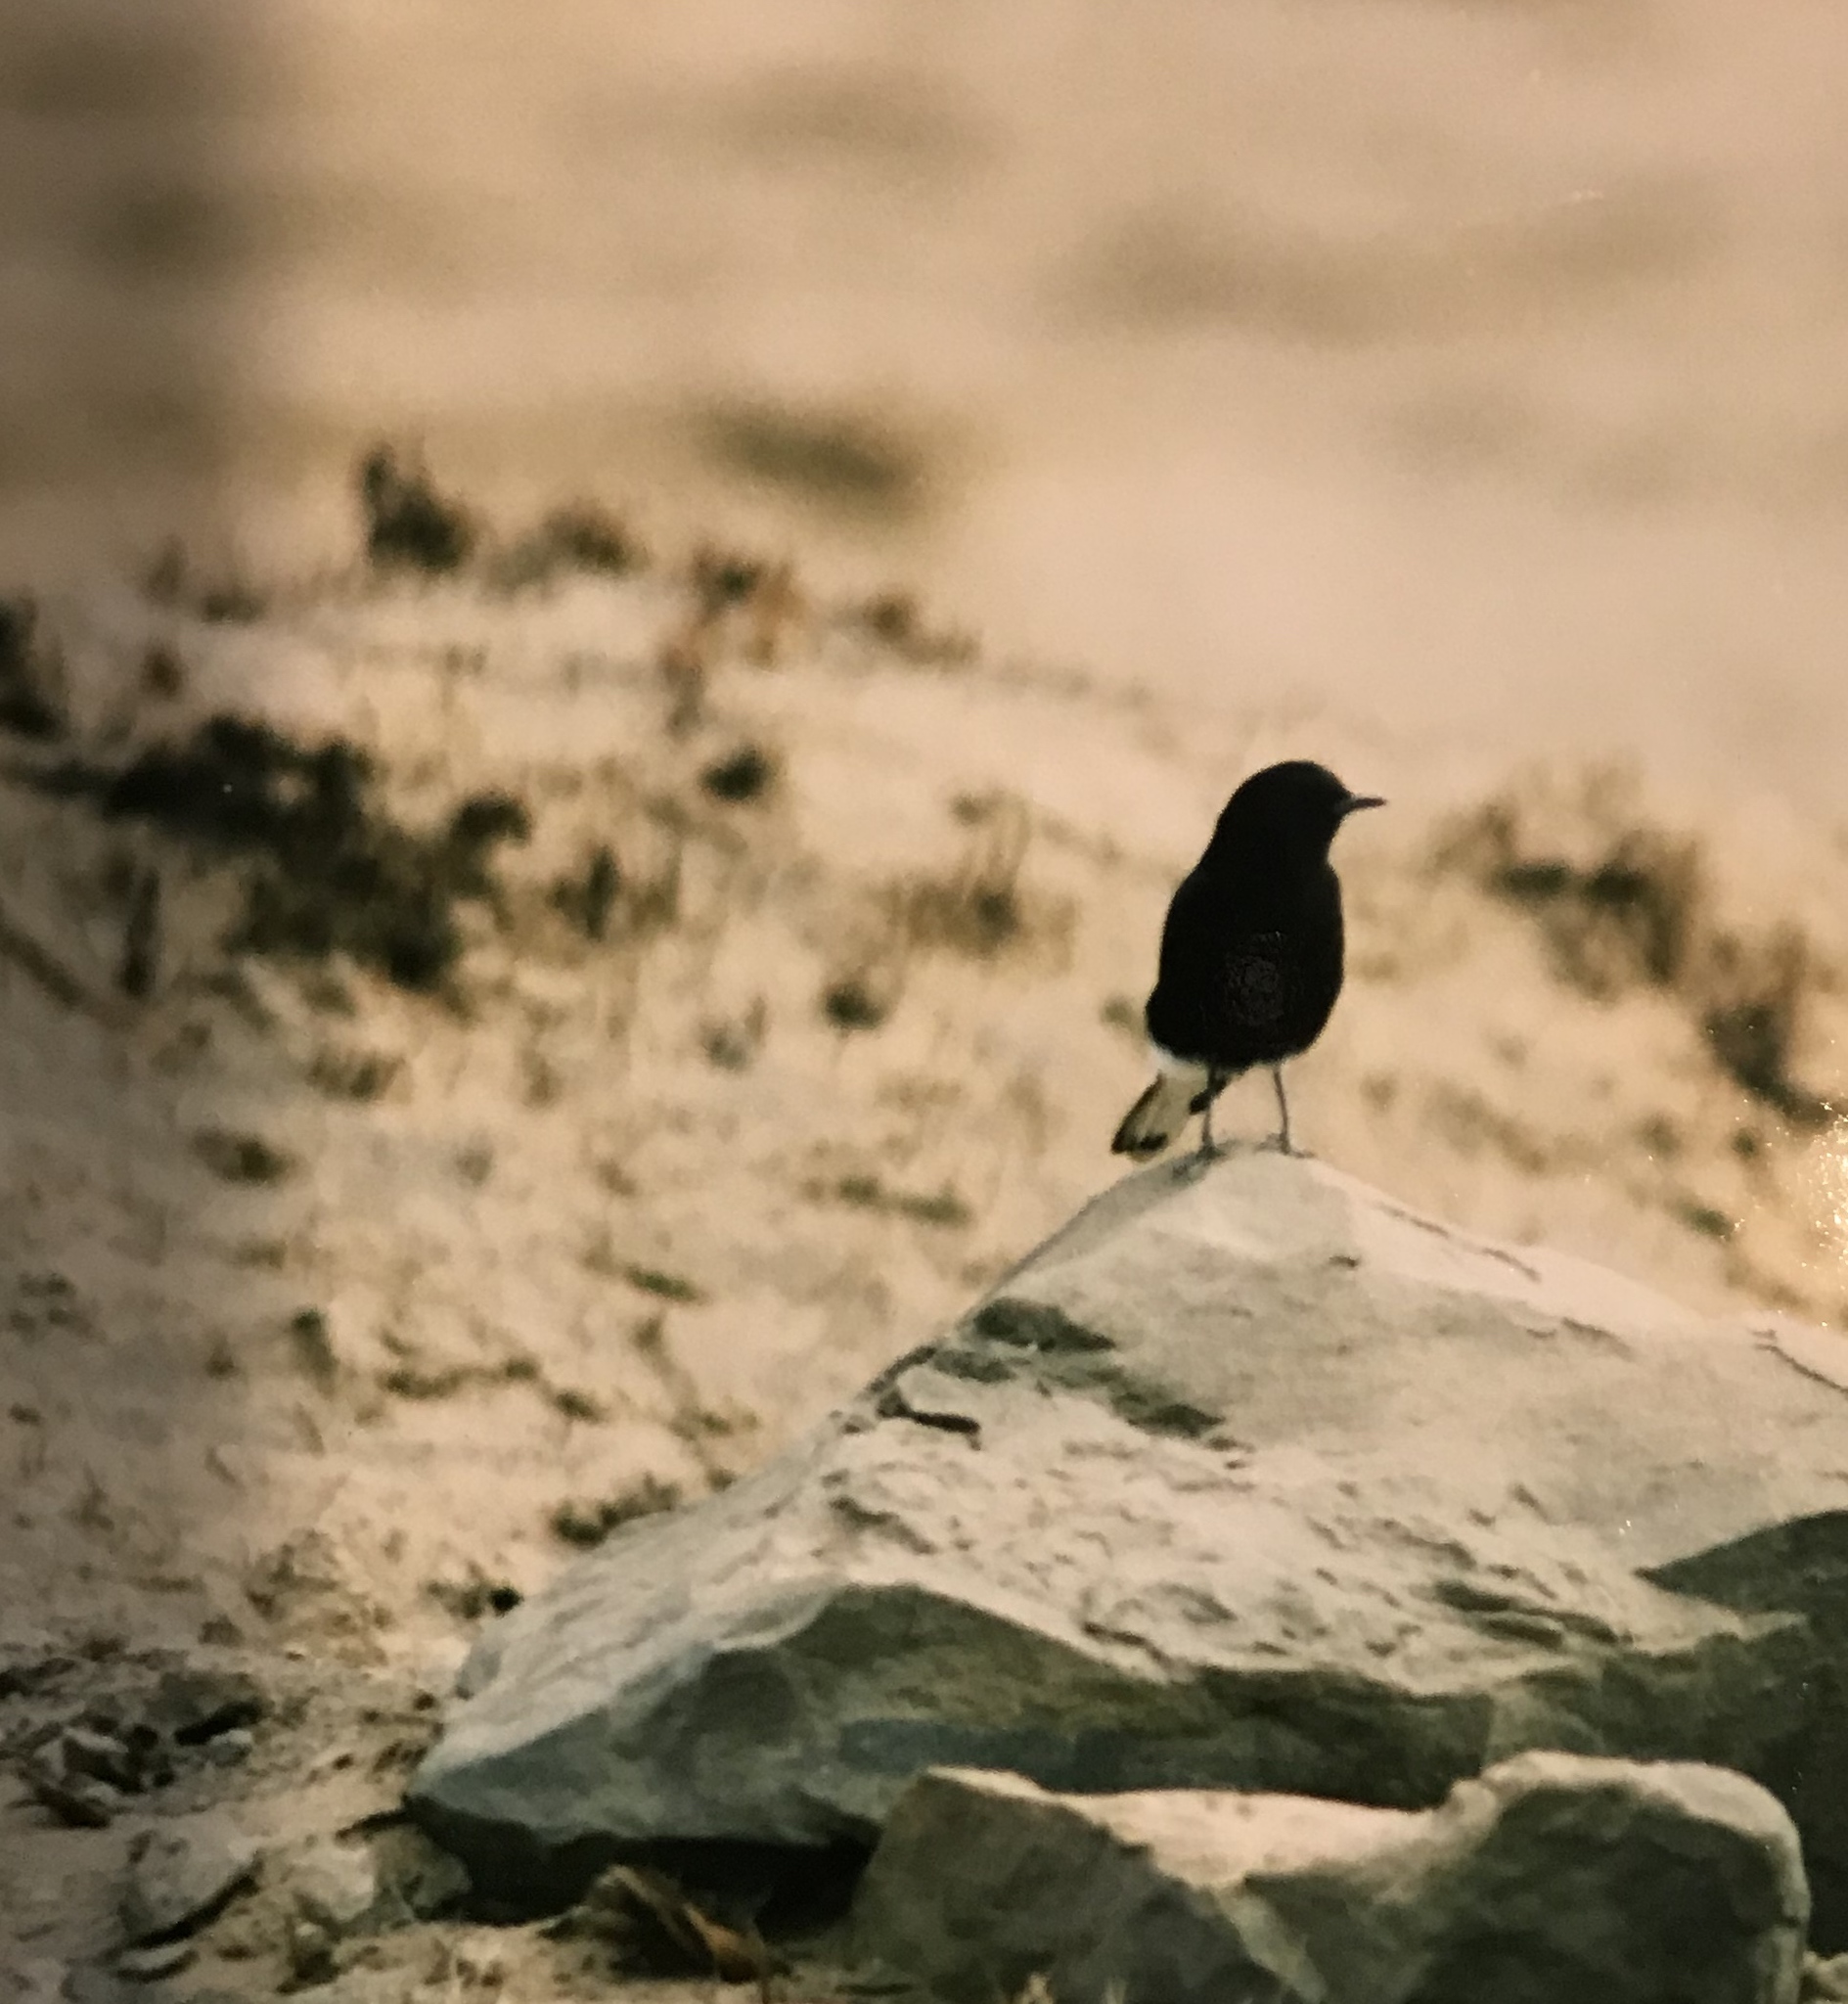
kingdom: Animalia
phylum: Chordata
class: Aves
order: Passeriformes
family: Muscicapidae
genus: Oenanthe
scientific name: Oenanthe leucura
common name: Black wheatear
